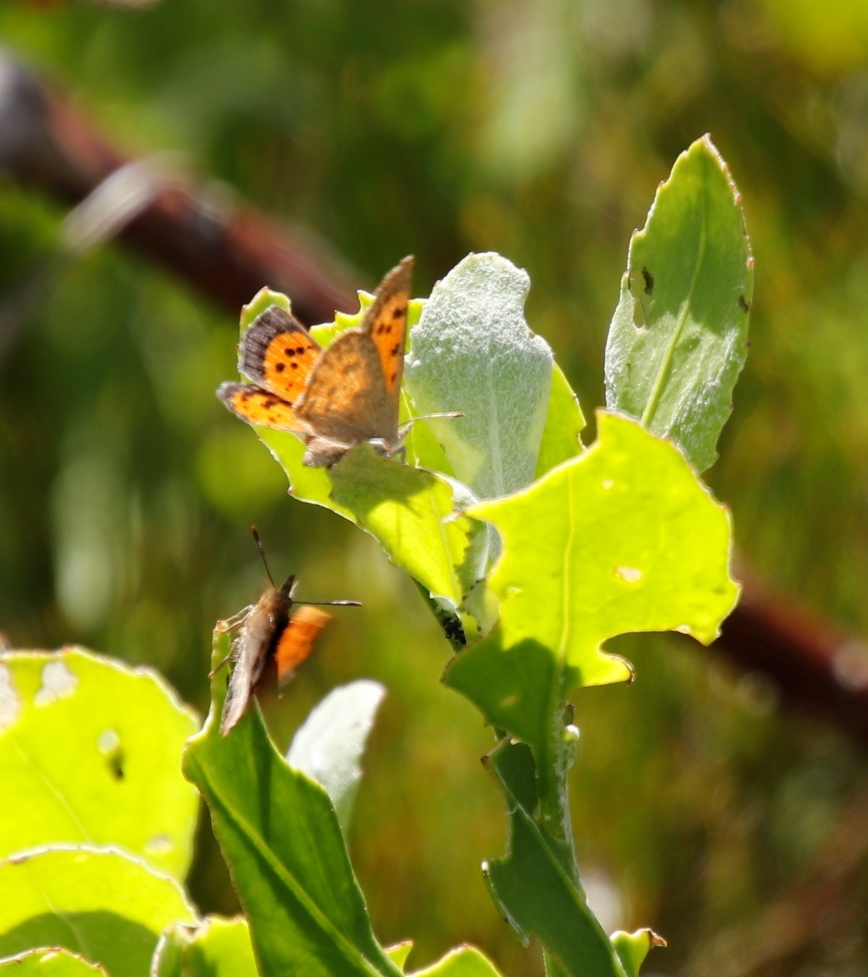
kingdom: Animalia
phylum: Arthropoda
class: Insecta
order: Lepidoptera
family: Lycaenidae
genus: Chrysoritis
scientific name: Chrysoritis
